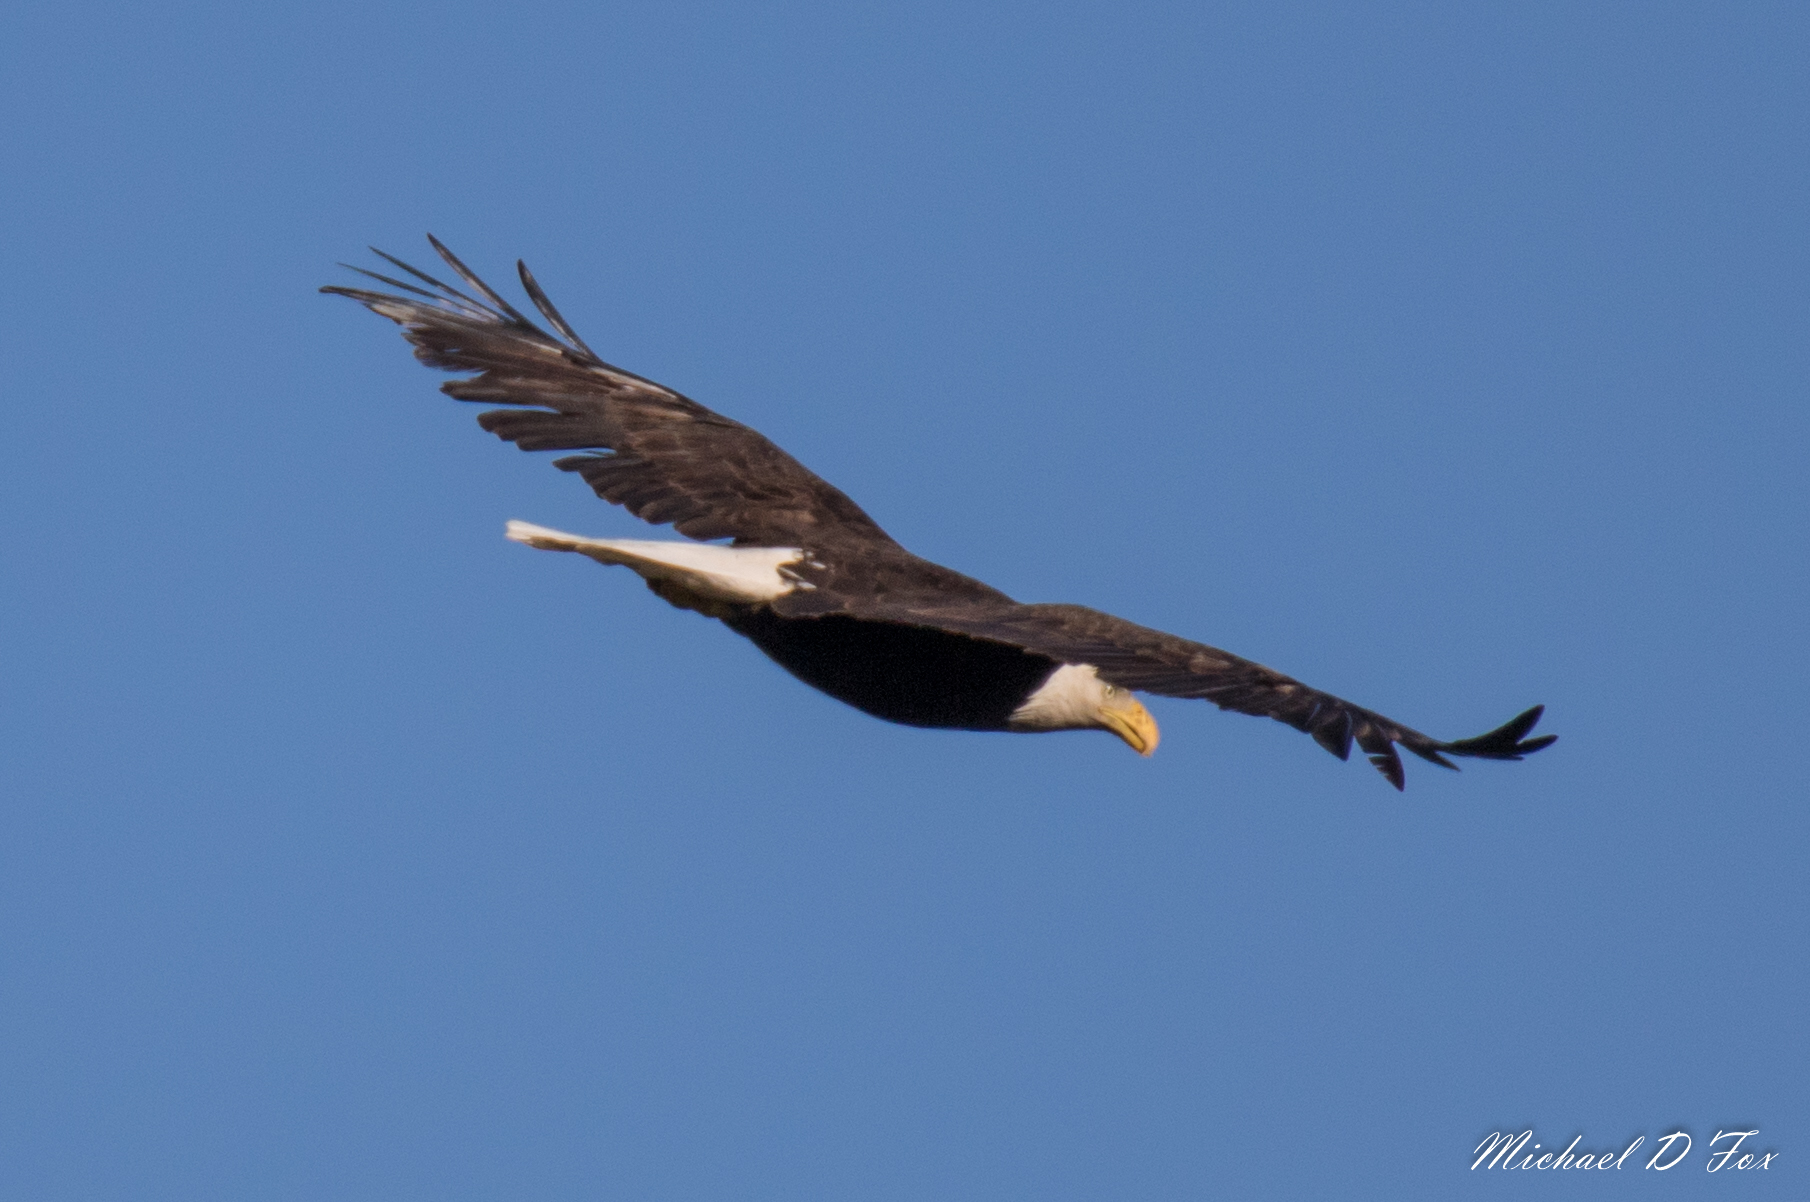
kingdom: Animalia
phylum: Chordata
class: Aves
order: Accipitriformes
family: Accipitridae
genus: Haliaeetus
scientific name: Haliaeetus leucocephalus
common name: Bald eagle
